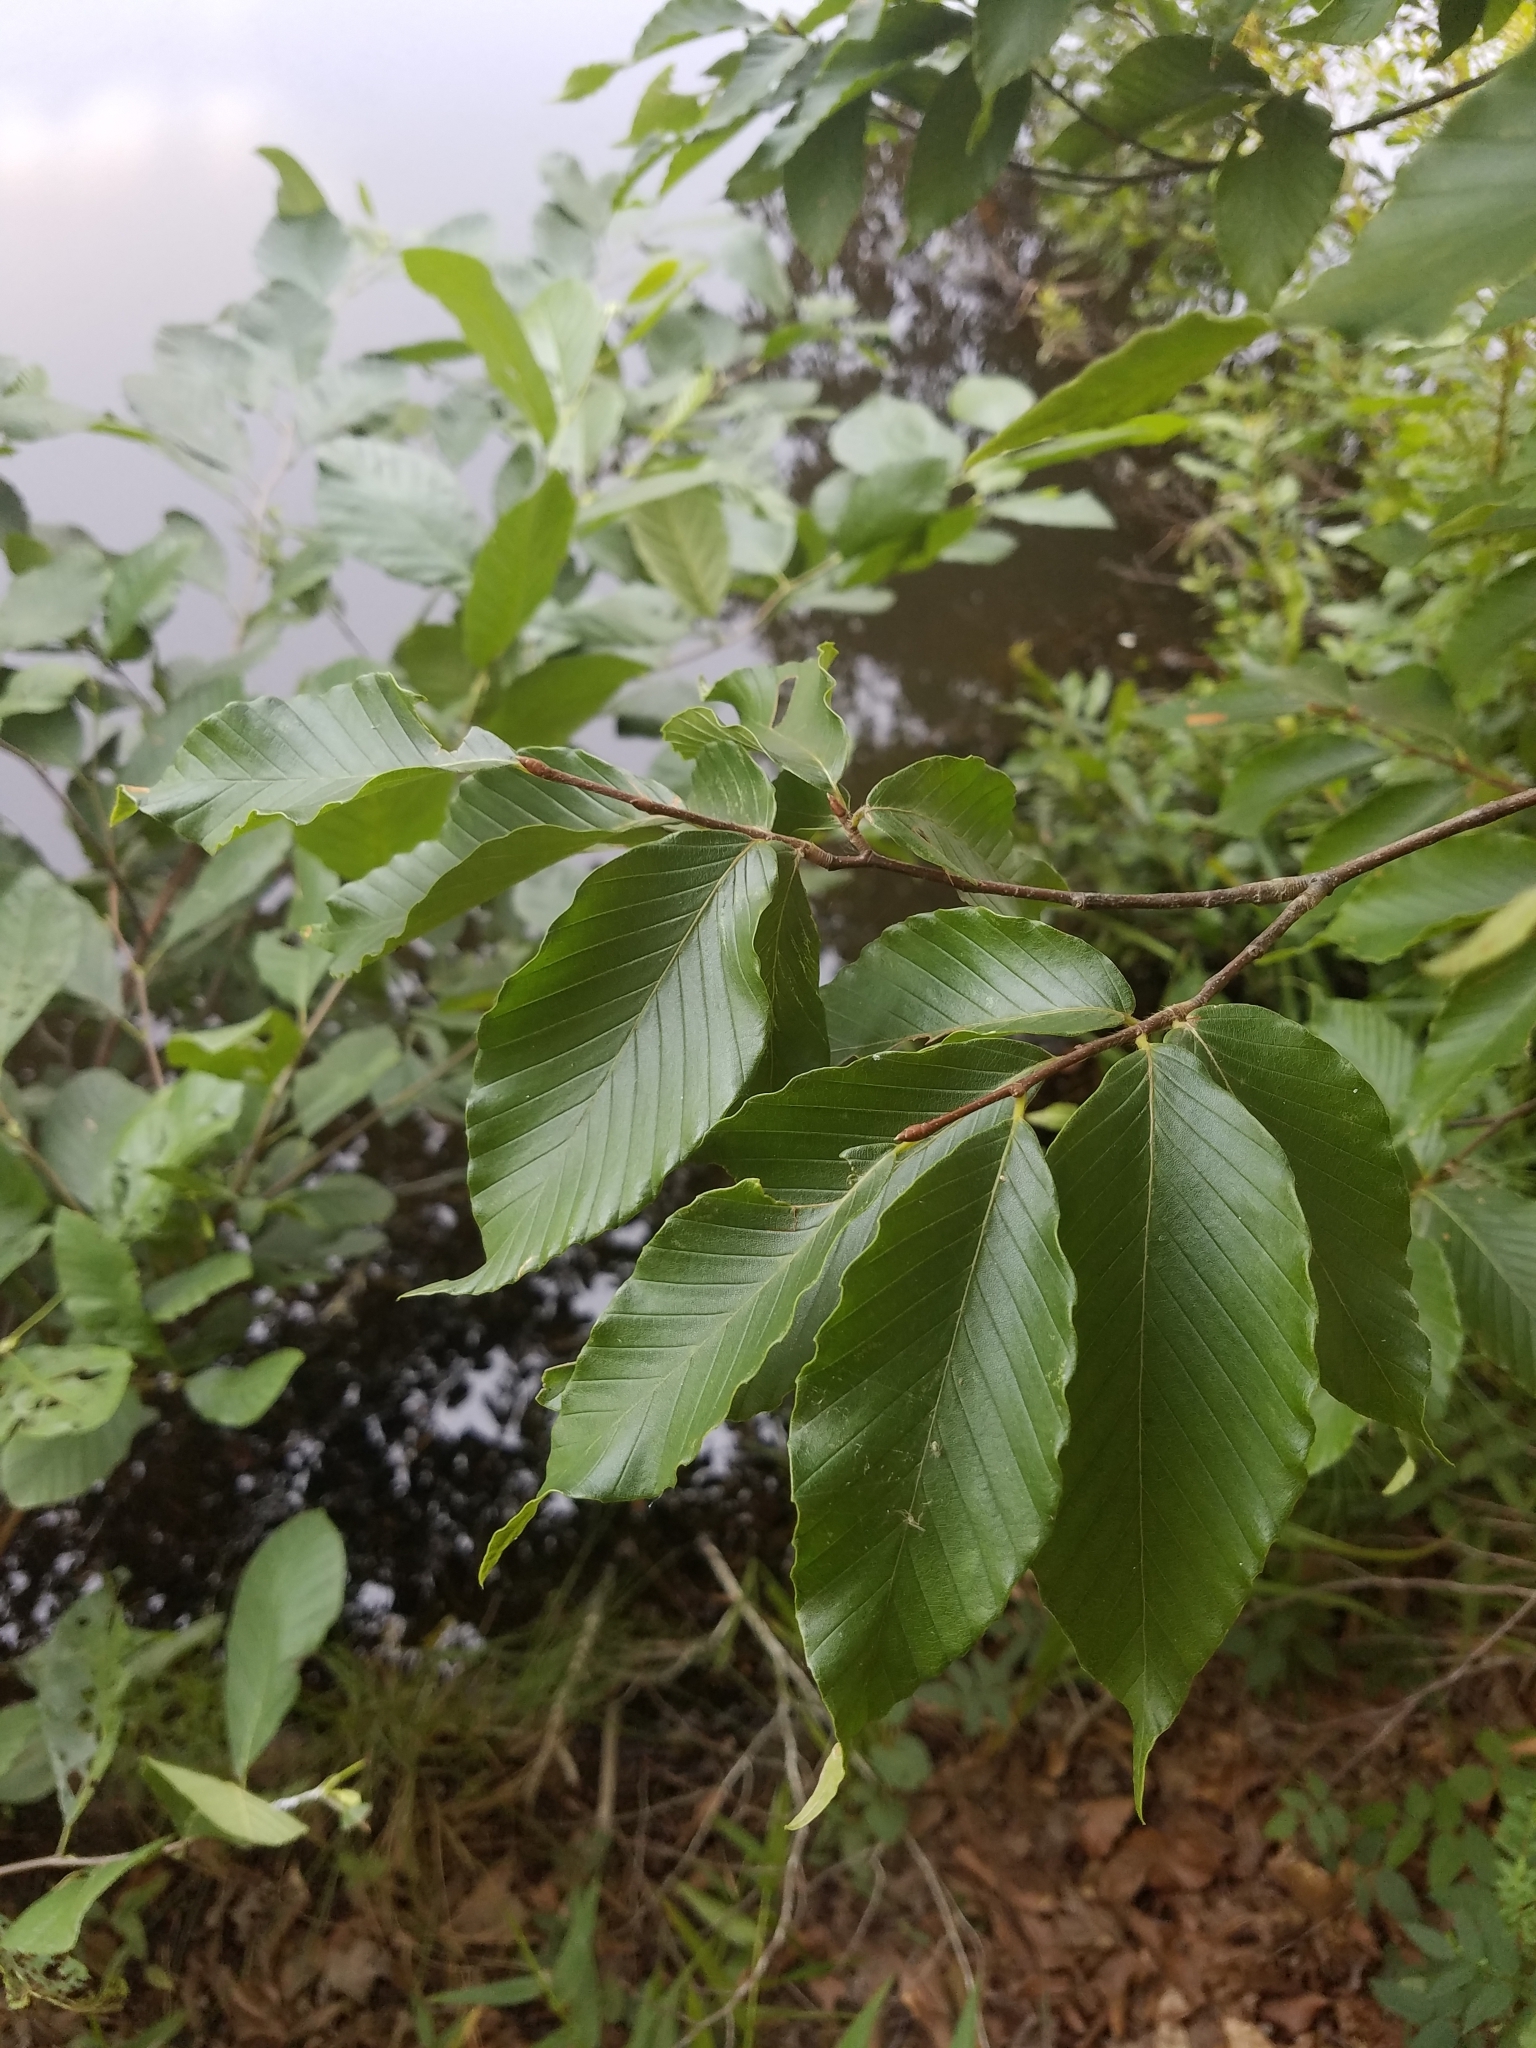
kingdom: Plantae
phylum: Tracheophyta
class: Magnoliopsida
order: Fagales
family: Fagaceae
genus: Fagus
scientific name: Fagus grandifolia
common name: American beech
